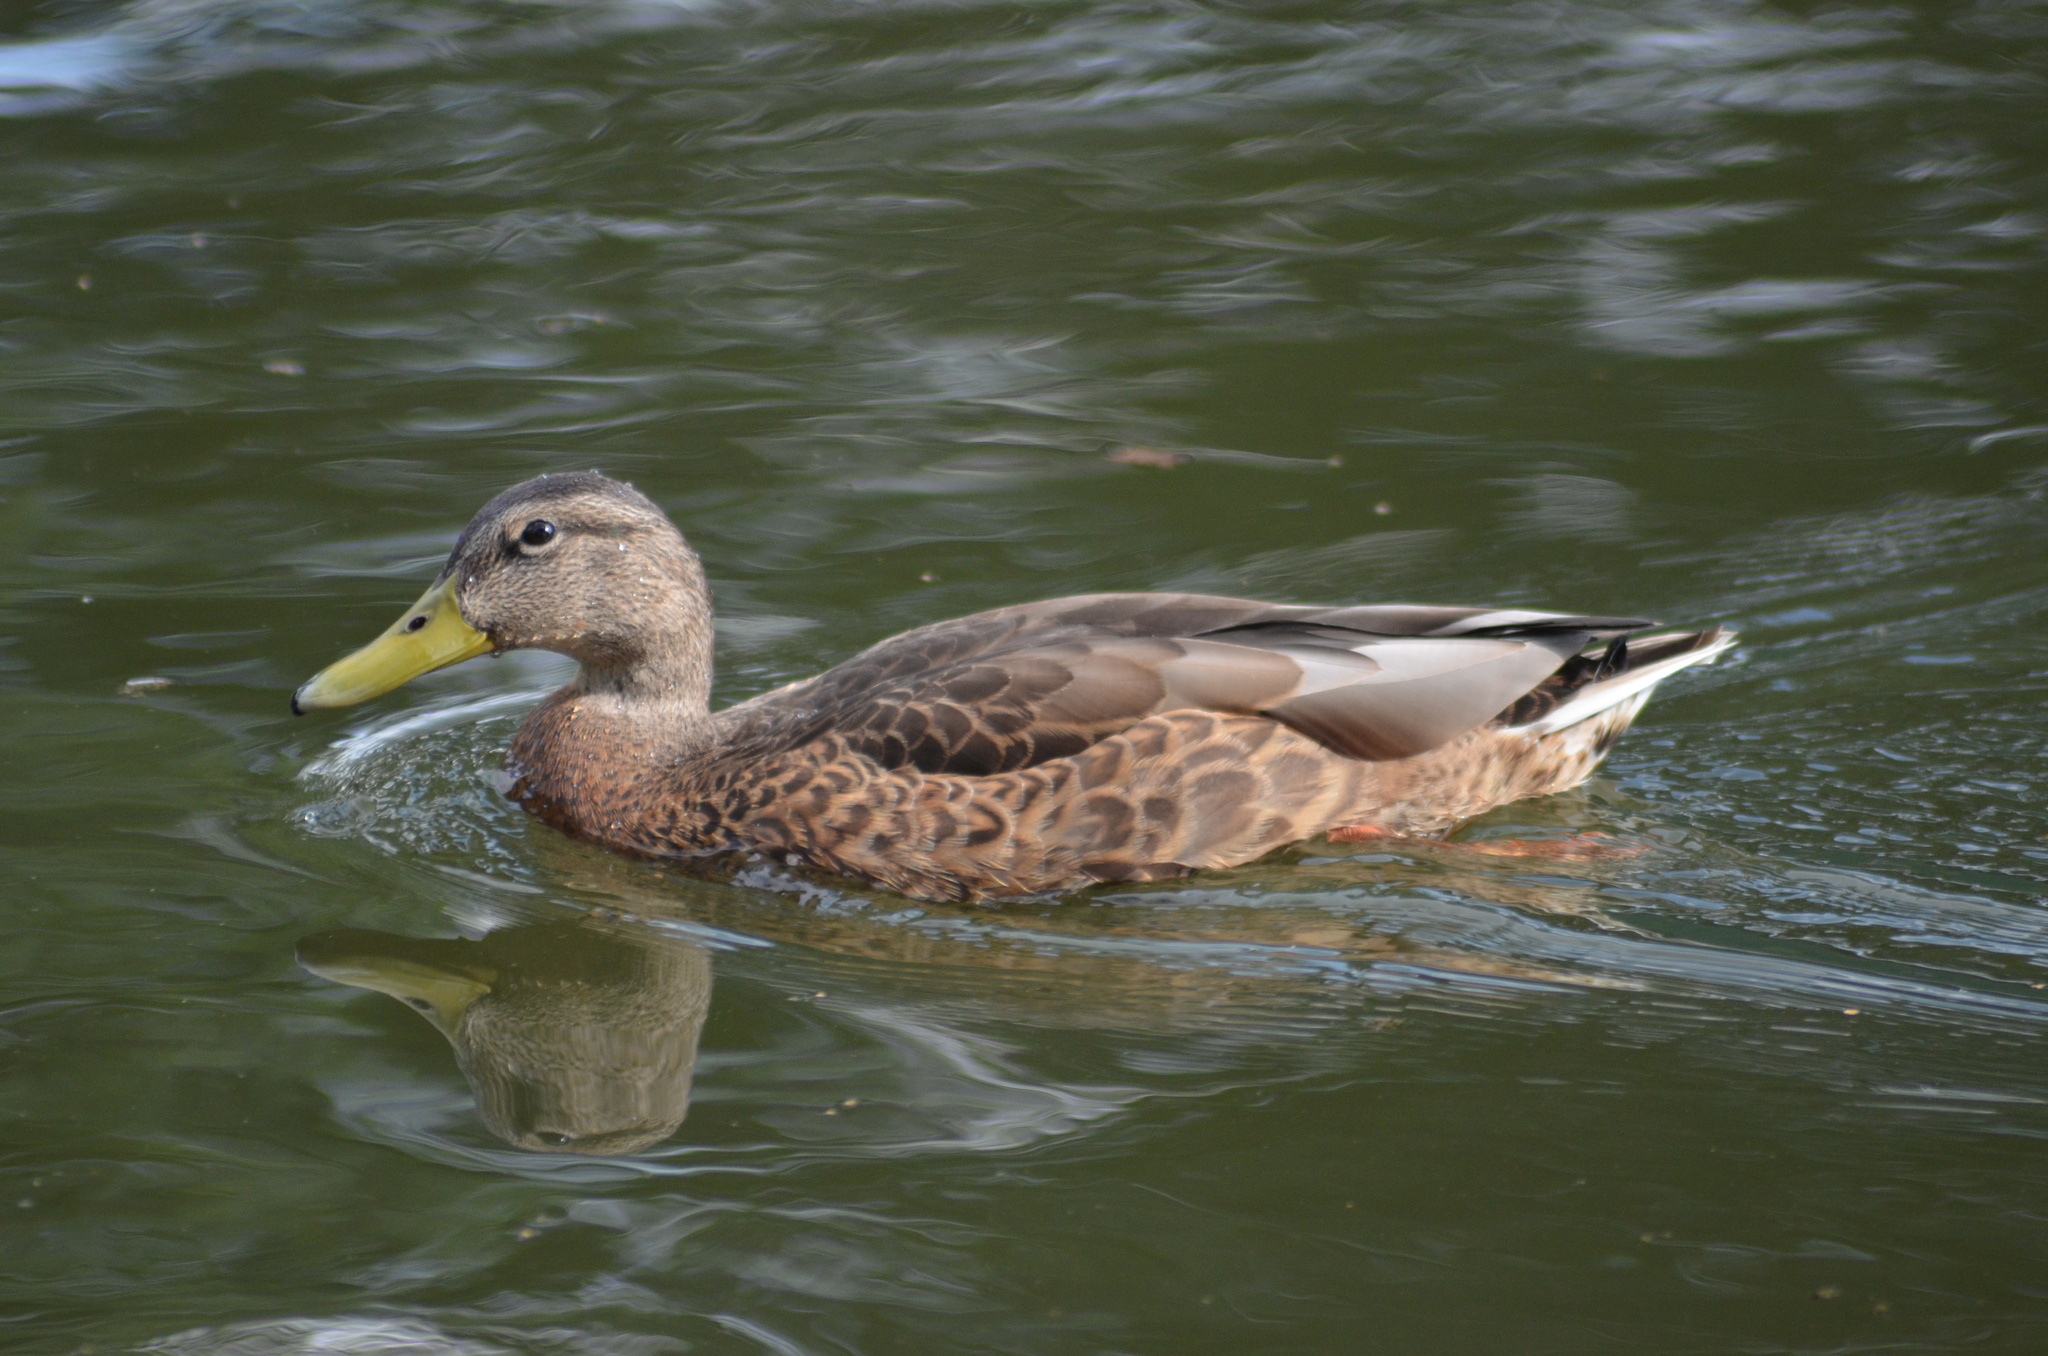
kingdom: Animalia
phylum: Chordata
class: Aves
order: Anseriformes
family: Anatidae
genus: Anas
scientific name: Anas platyrhynchos
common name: Mallard
